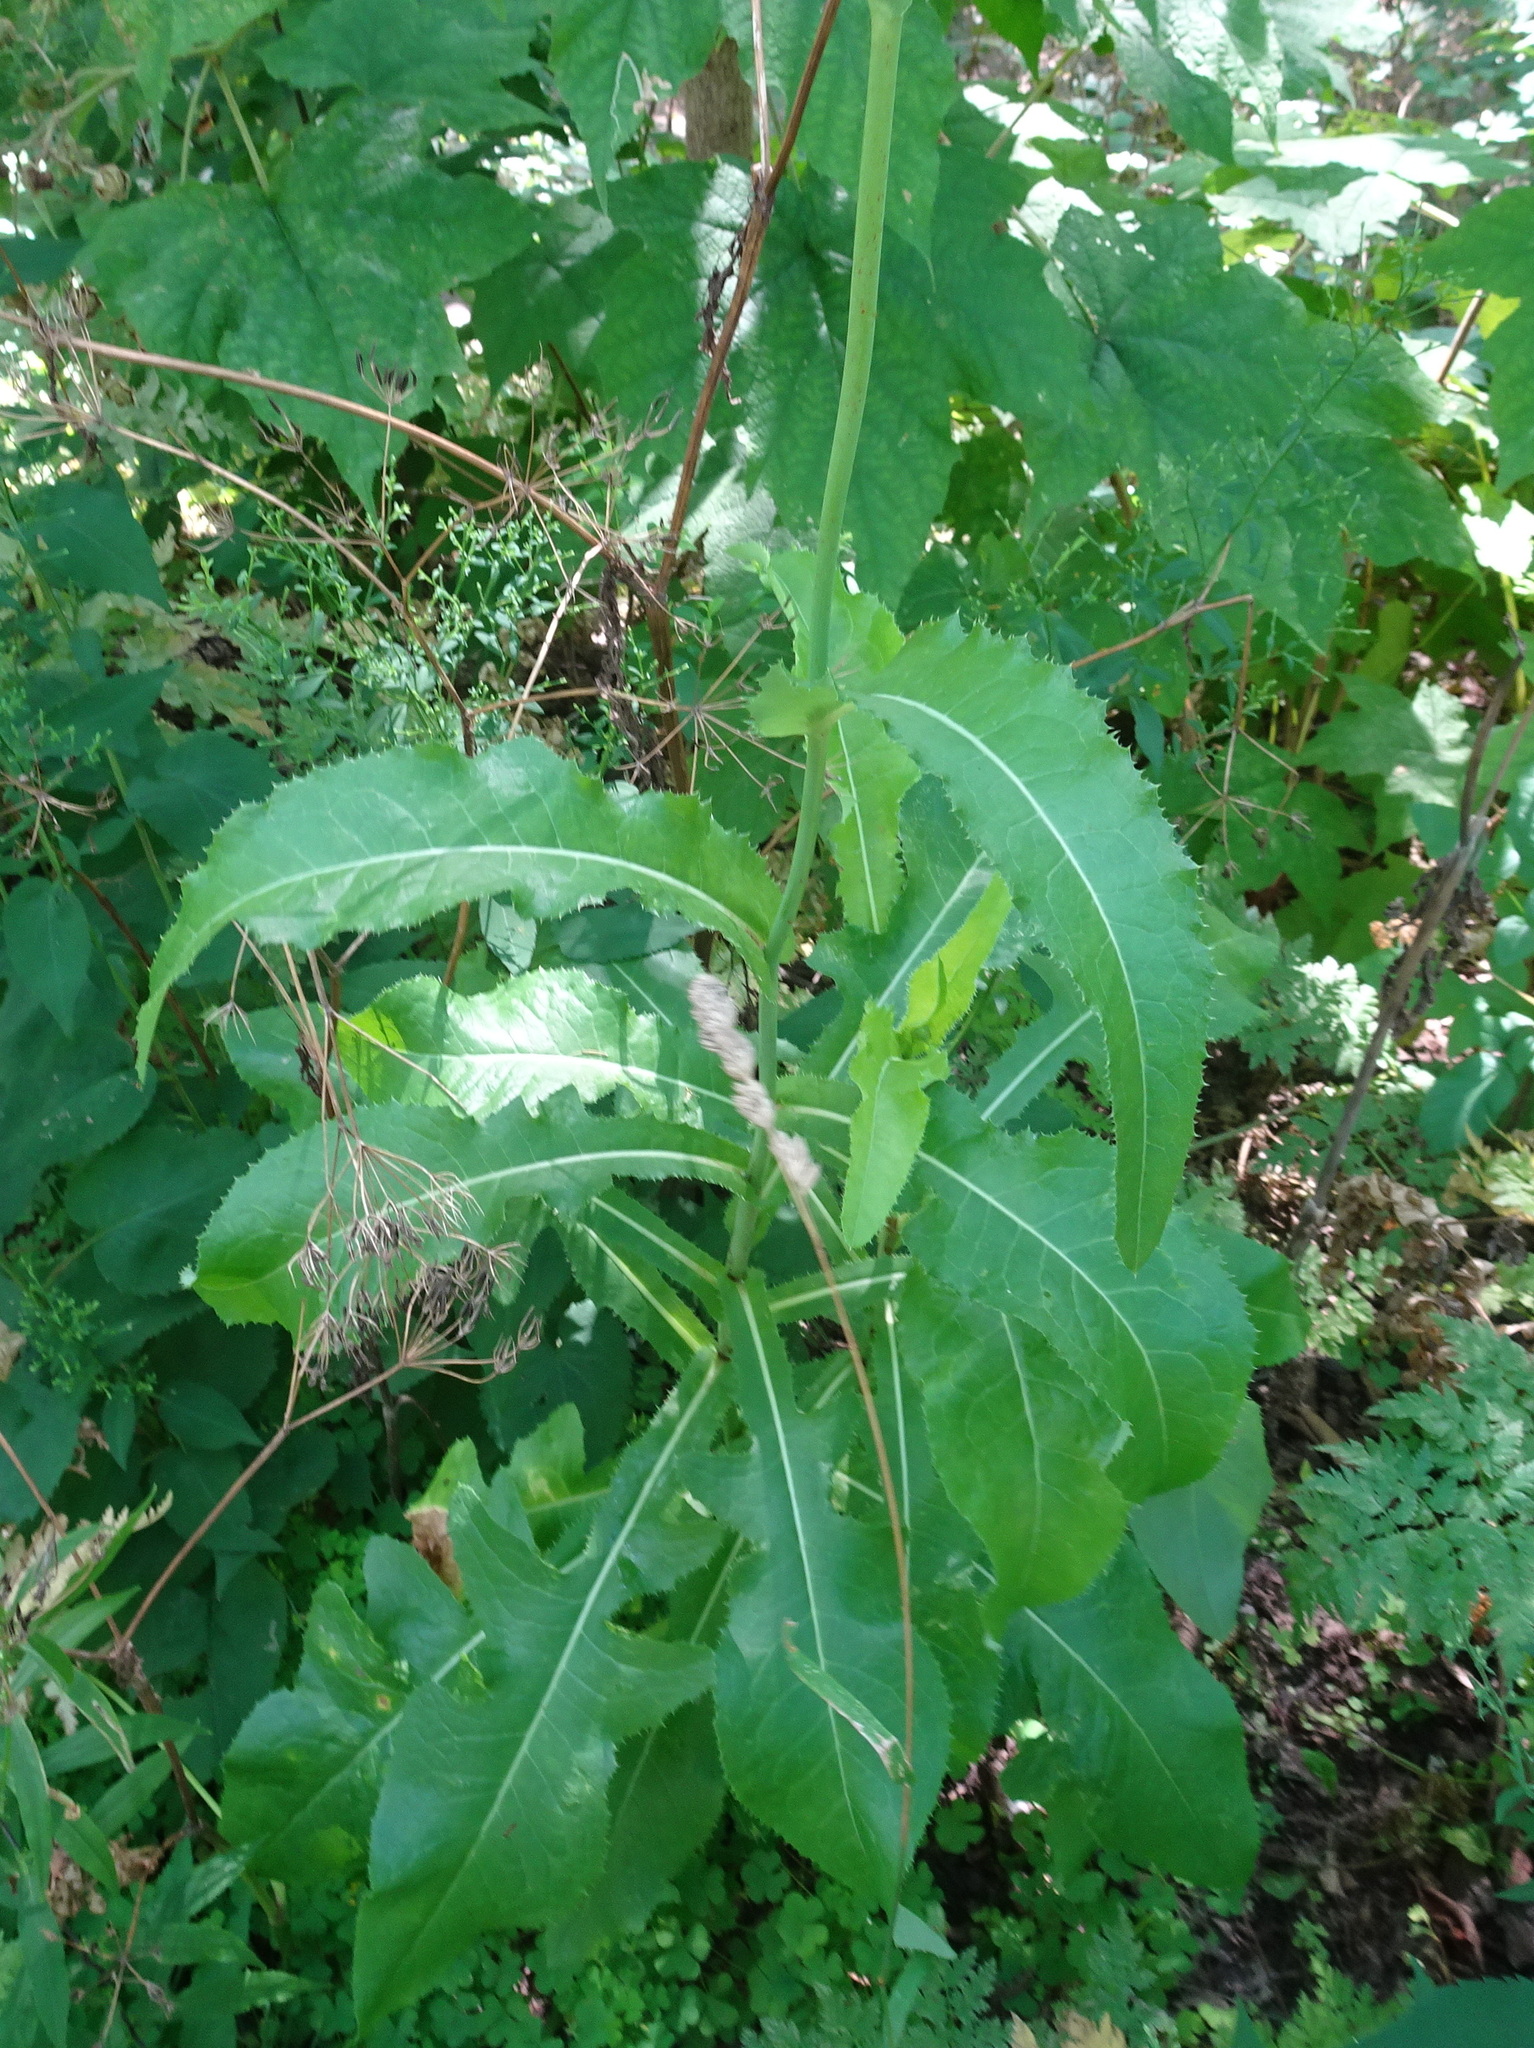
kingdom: Plantae
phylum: Tracheophyta
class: Magnoliopsida
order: Asterales
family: Asteraceae
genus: Sonchus
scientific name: Sonchus arvensis
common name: Perennial sow-thistle
